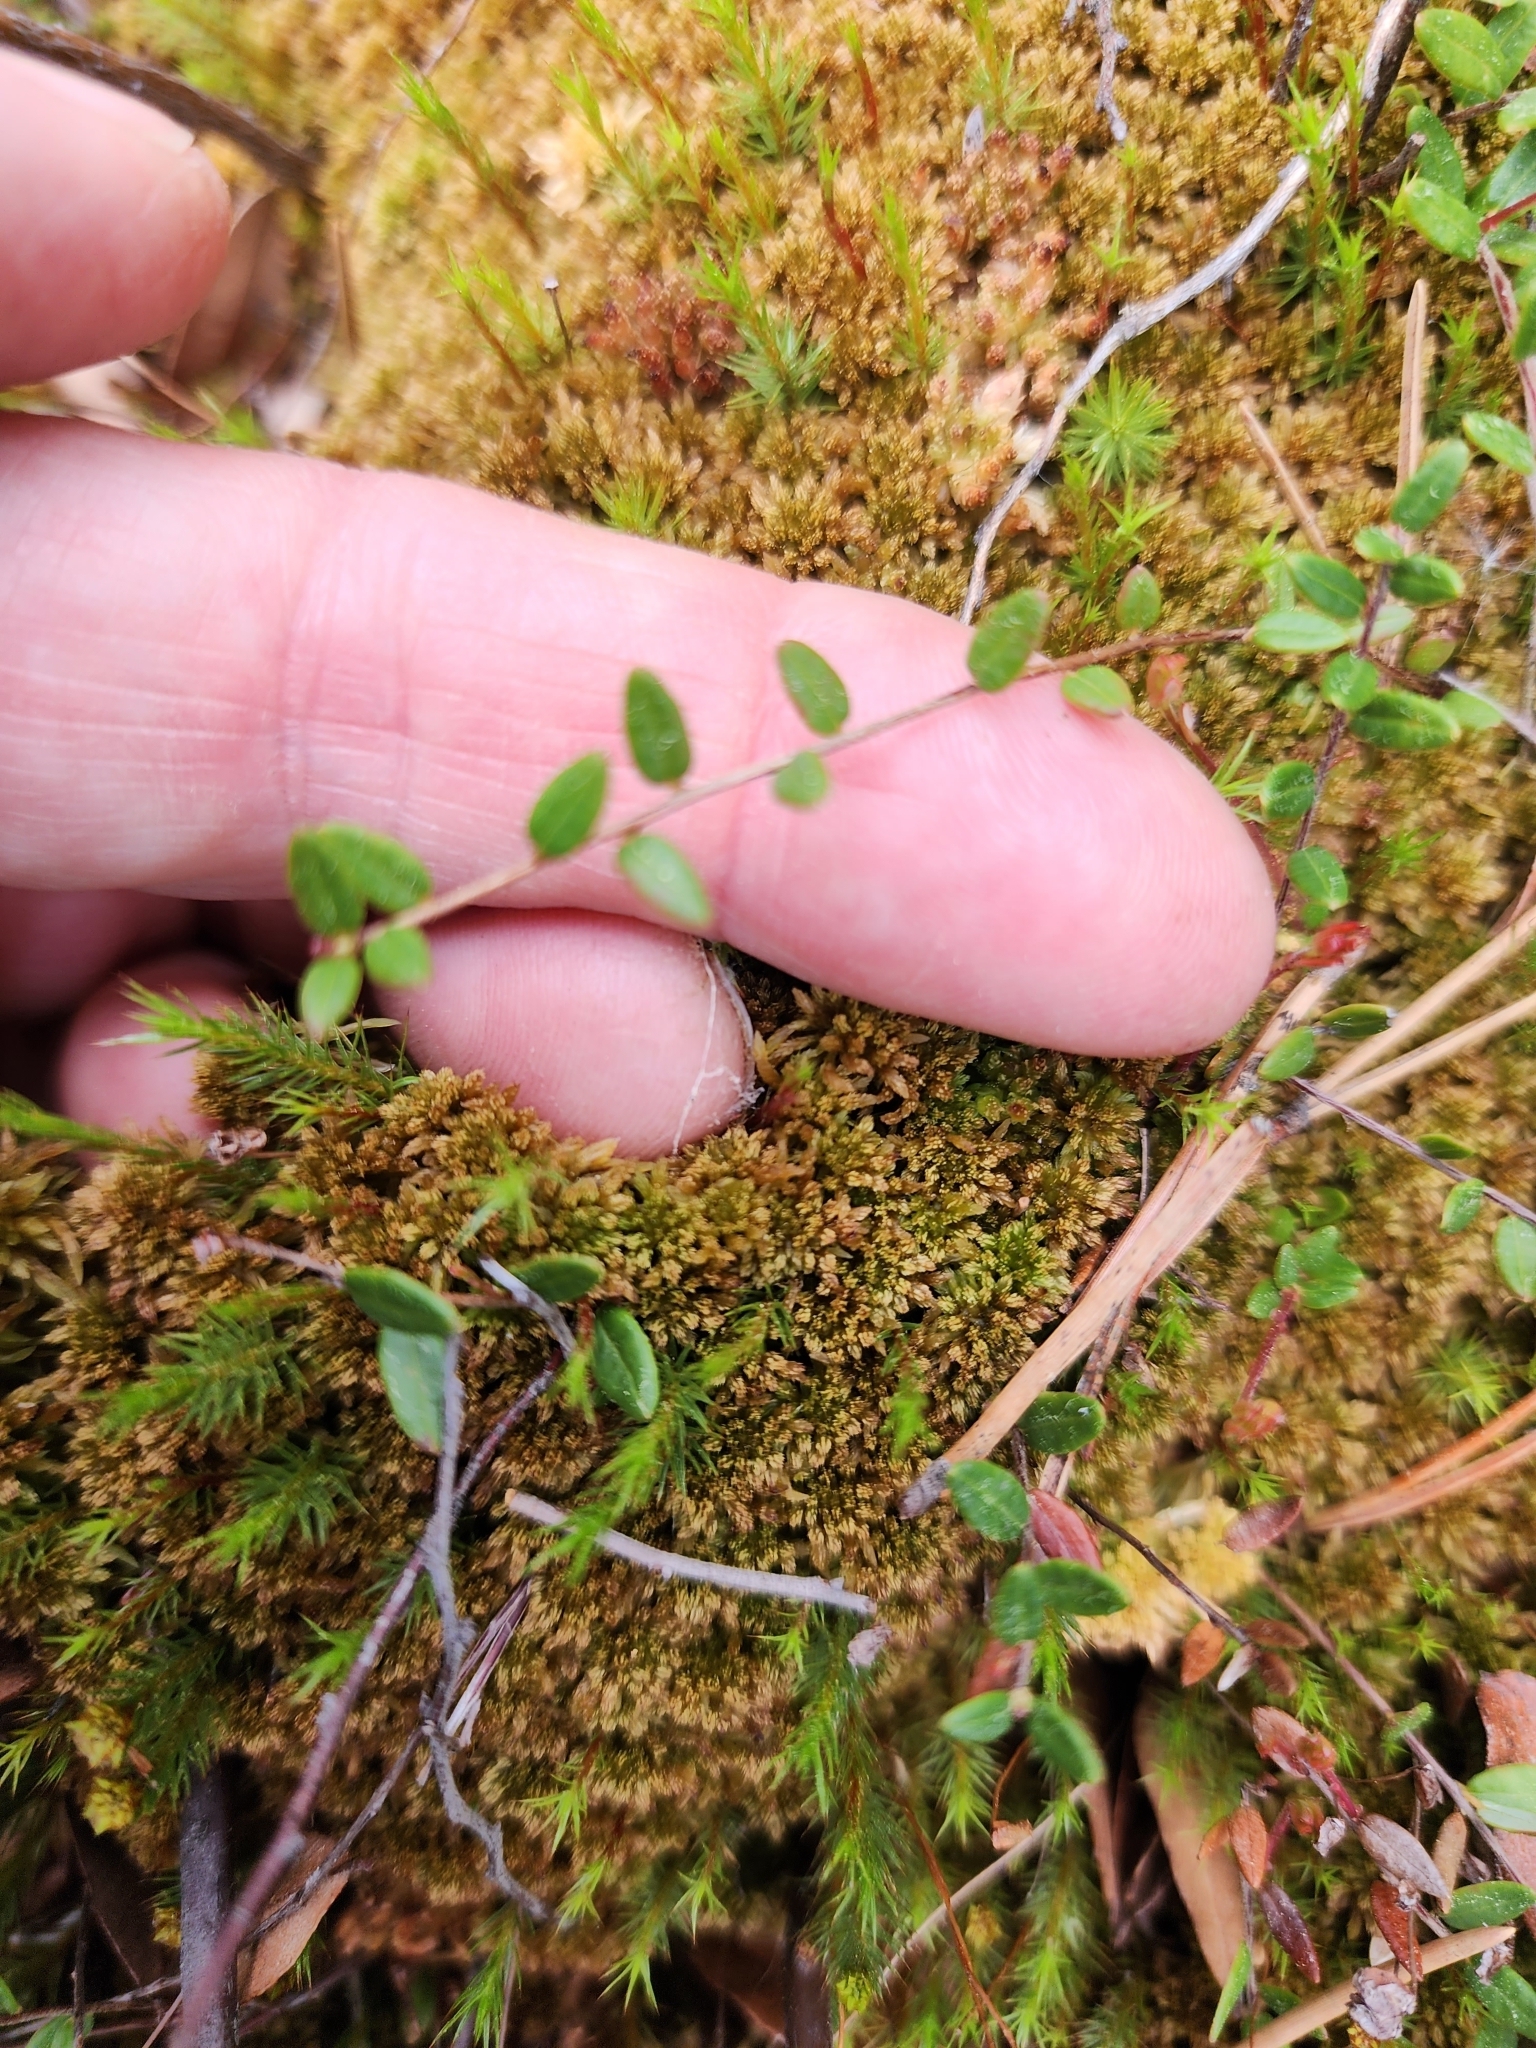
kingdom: Plantae
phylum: Tracheophyta
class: Magnoliopsida
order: Ericales
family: Ericaceae
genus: Vaccinium
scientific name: Vaccinium oxycoccos
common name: Cranberry
